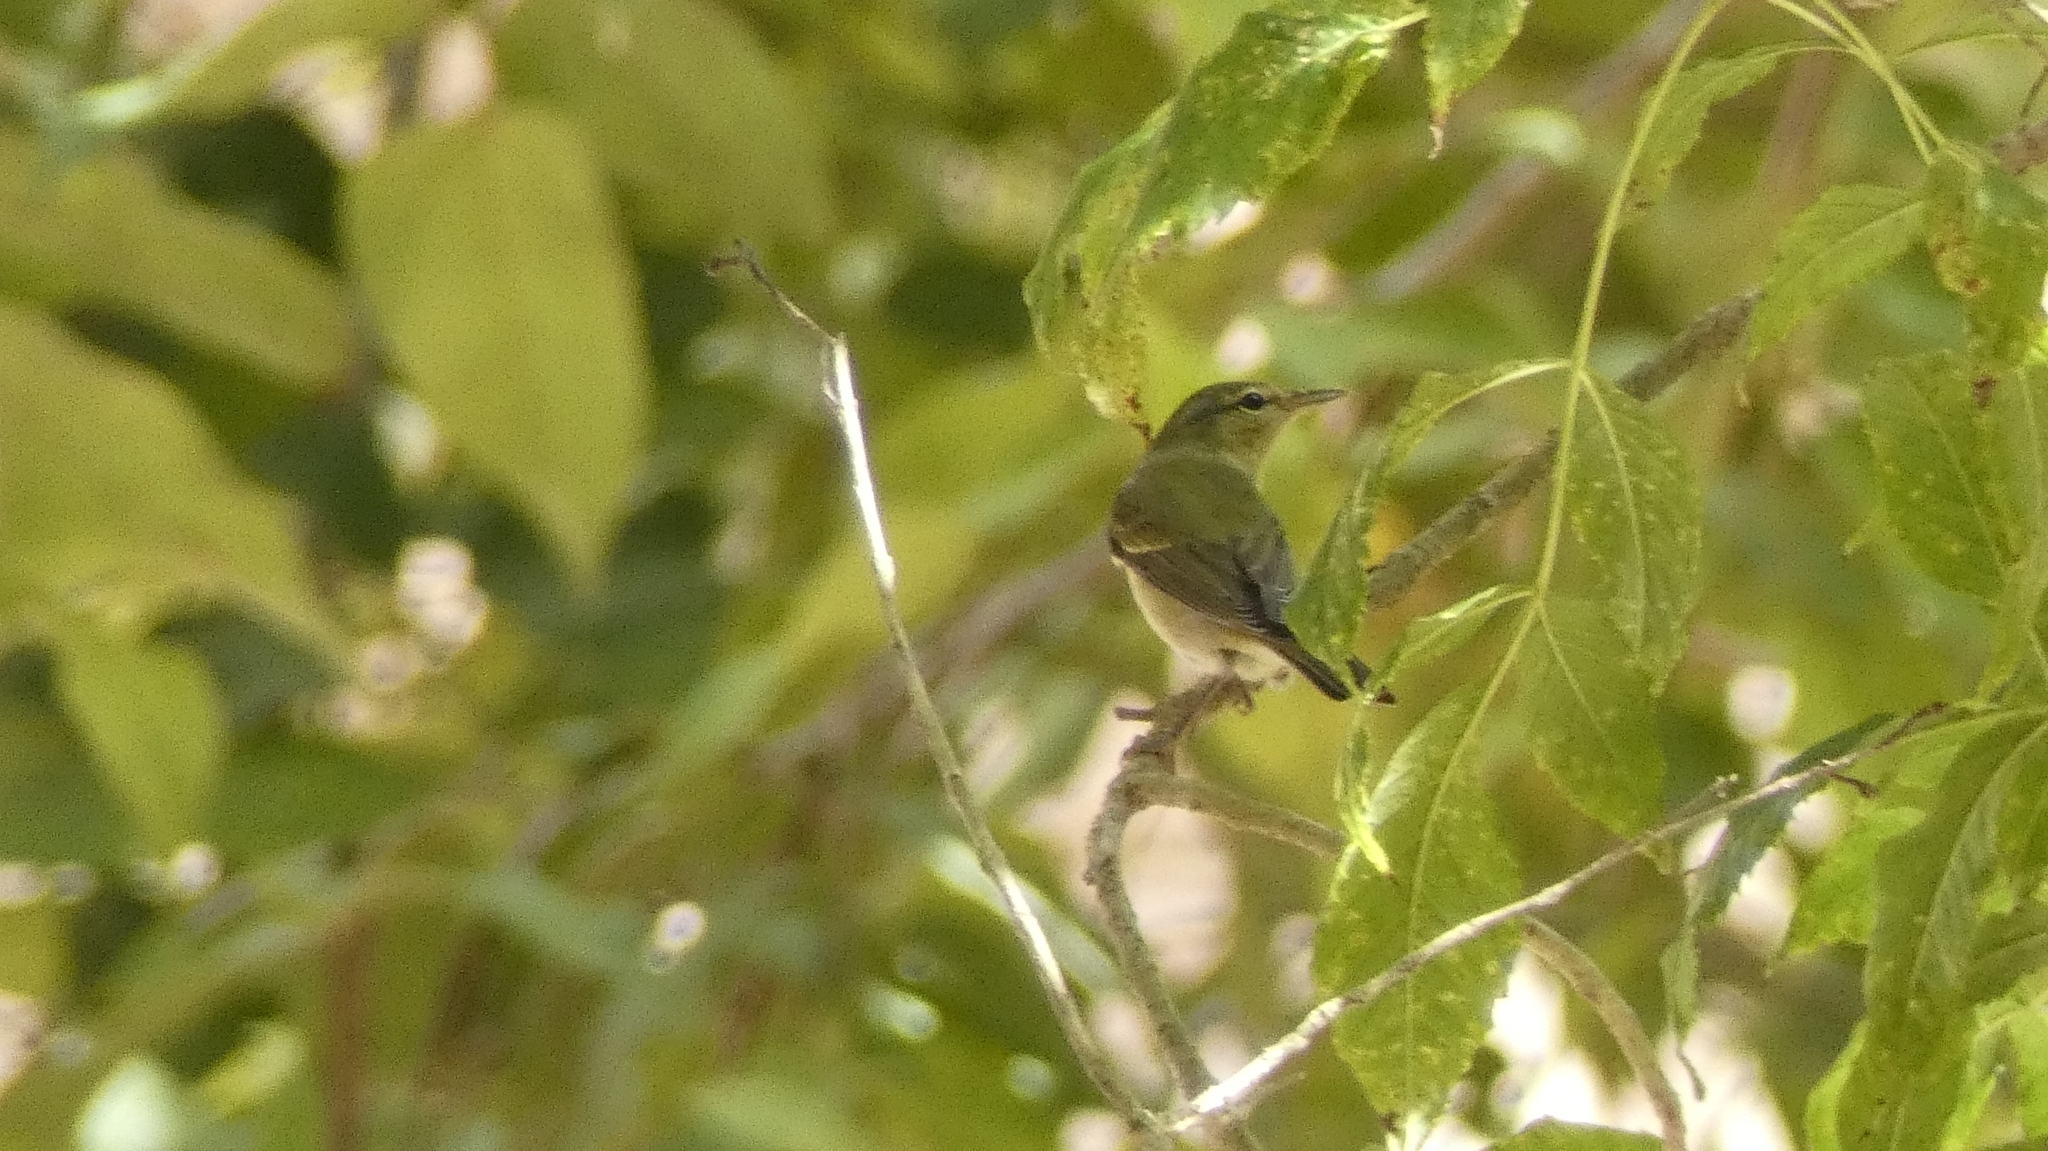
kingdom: Animalia
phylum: Chordata
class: Aves
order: Passeriformes
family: Parulidae
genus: Leiothlypis
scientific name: Leiothlypis peregrina
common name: Tennessee warbler
